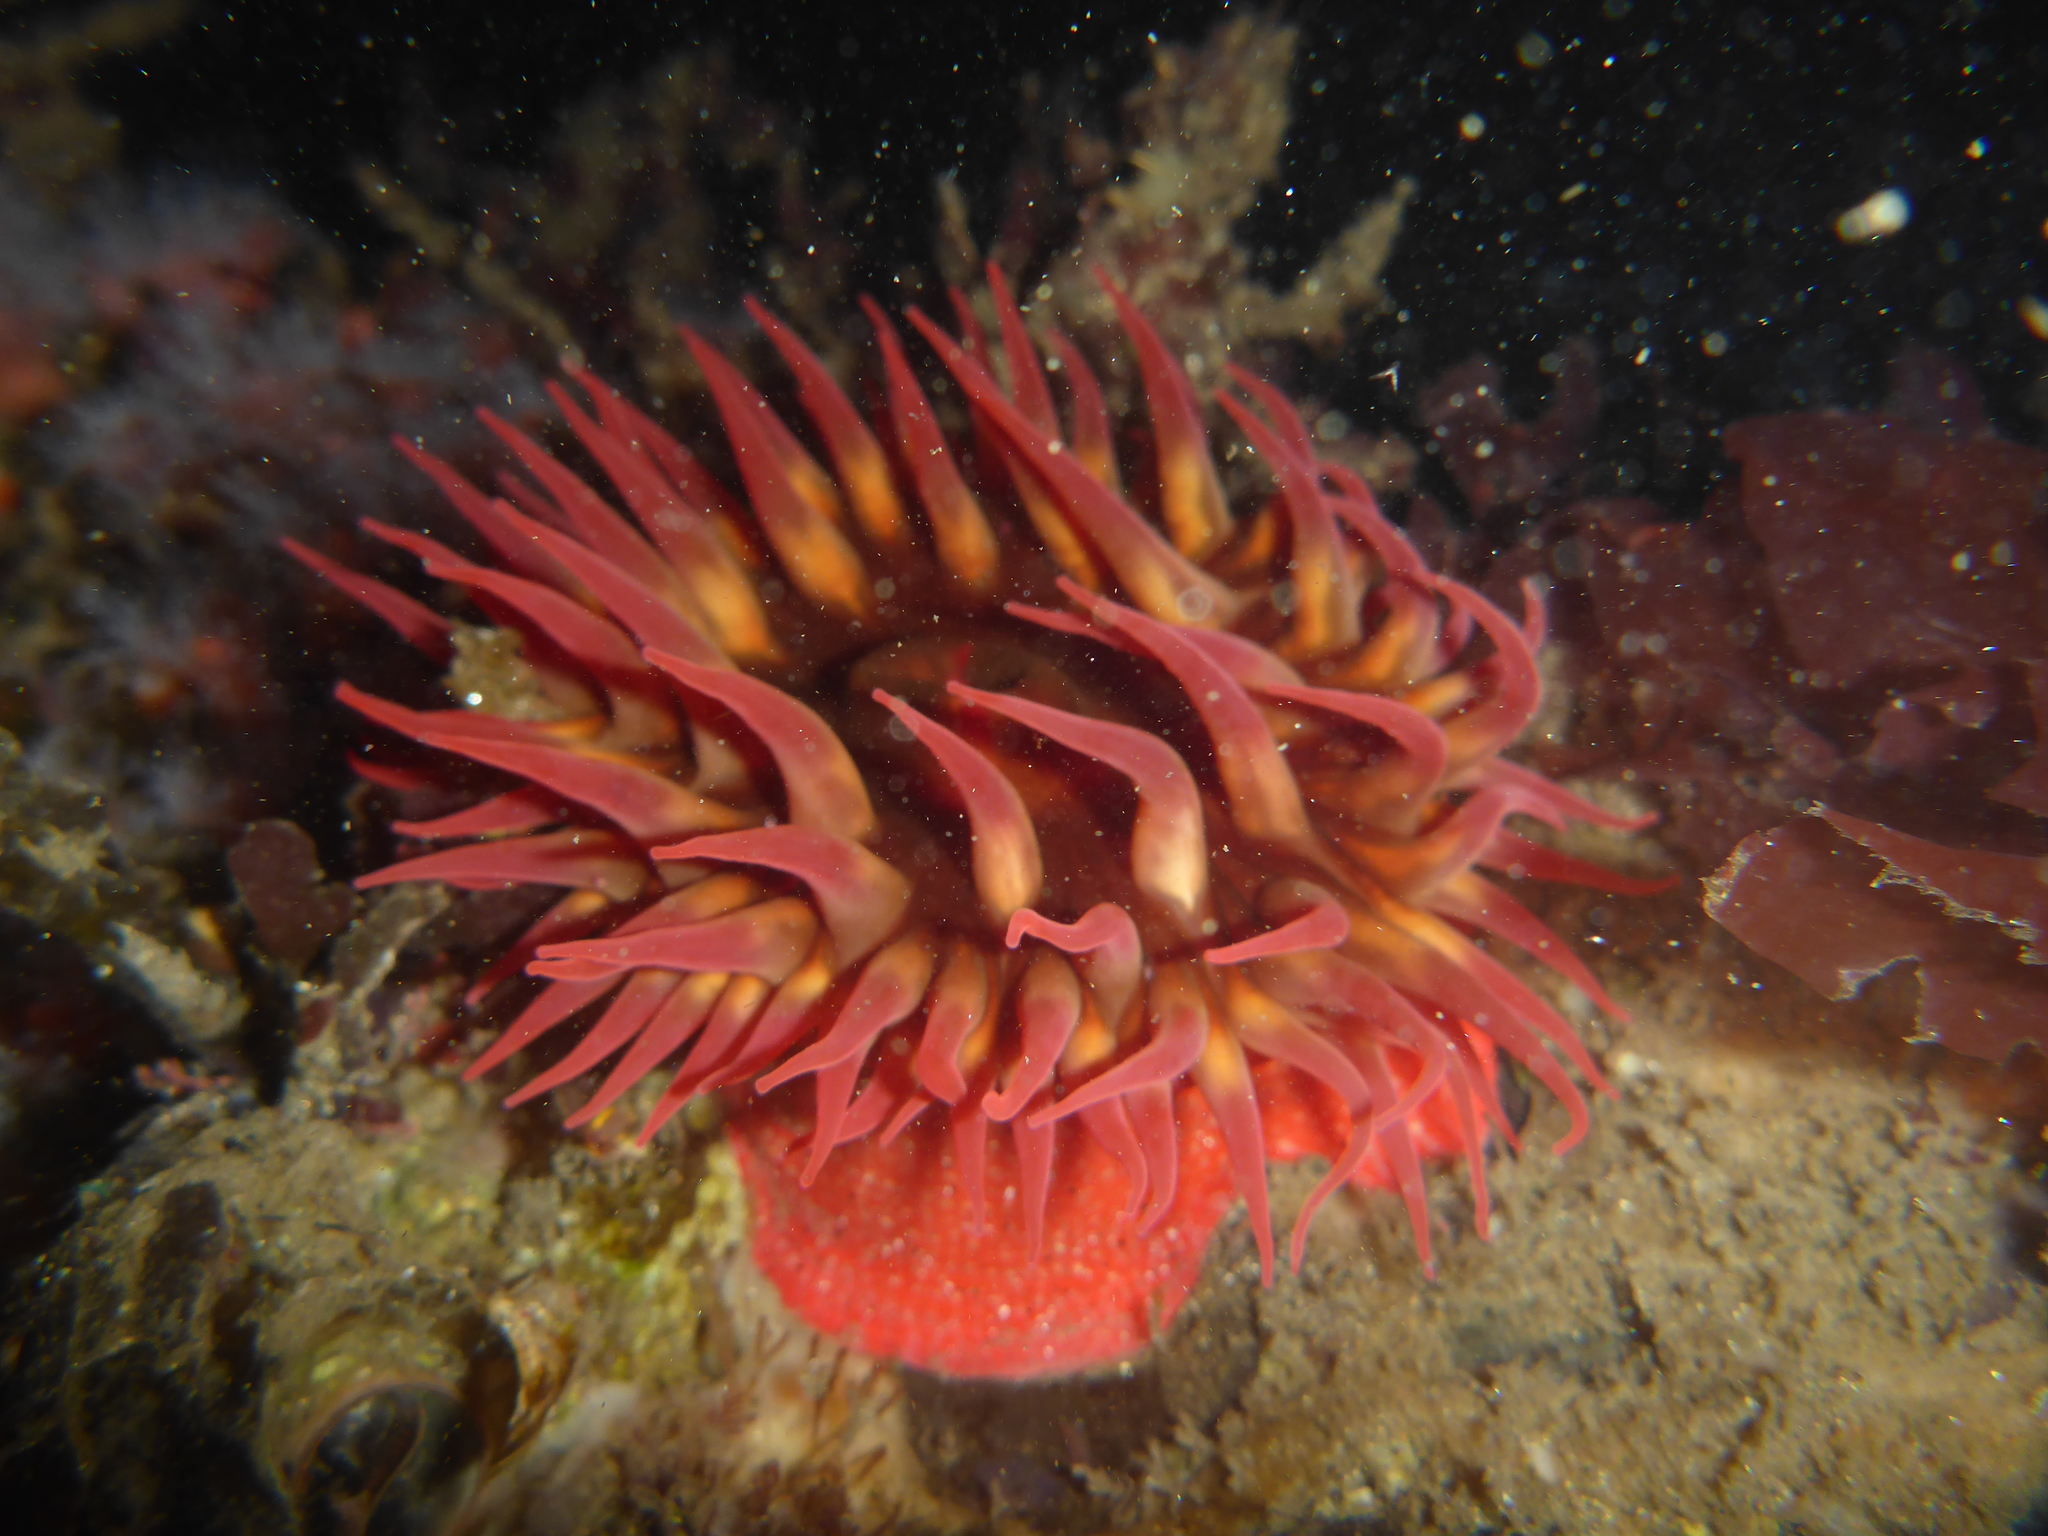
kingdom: Animalia
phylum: Cnidaria
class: Anthozoa
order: Actiniaria
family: Actiniidae
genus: Cribrinopsis
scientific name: Cribrinopsis albopunctata
